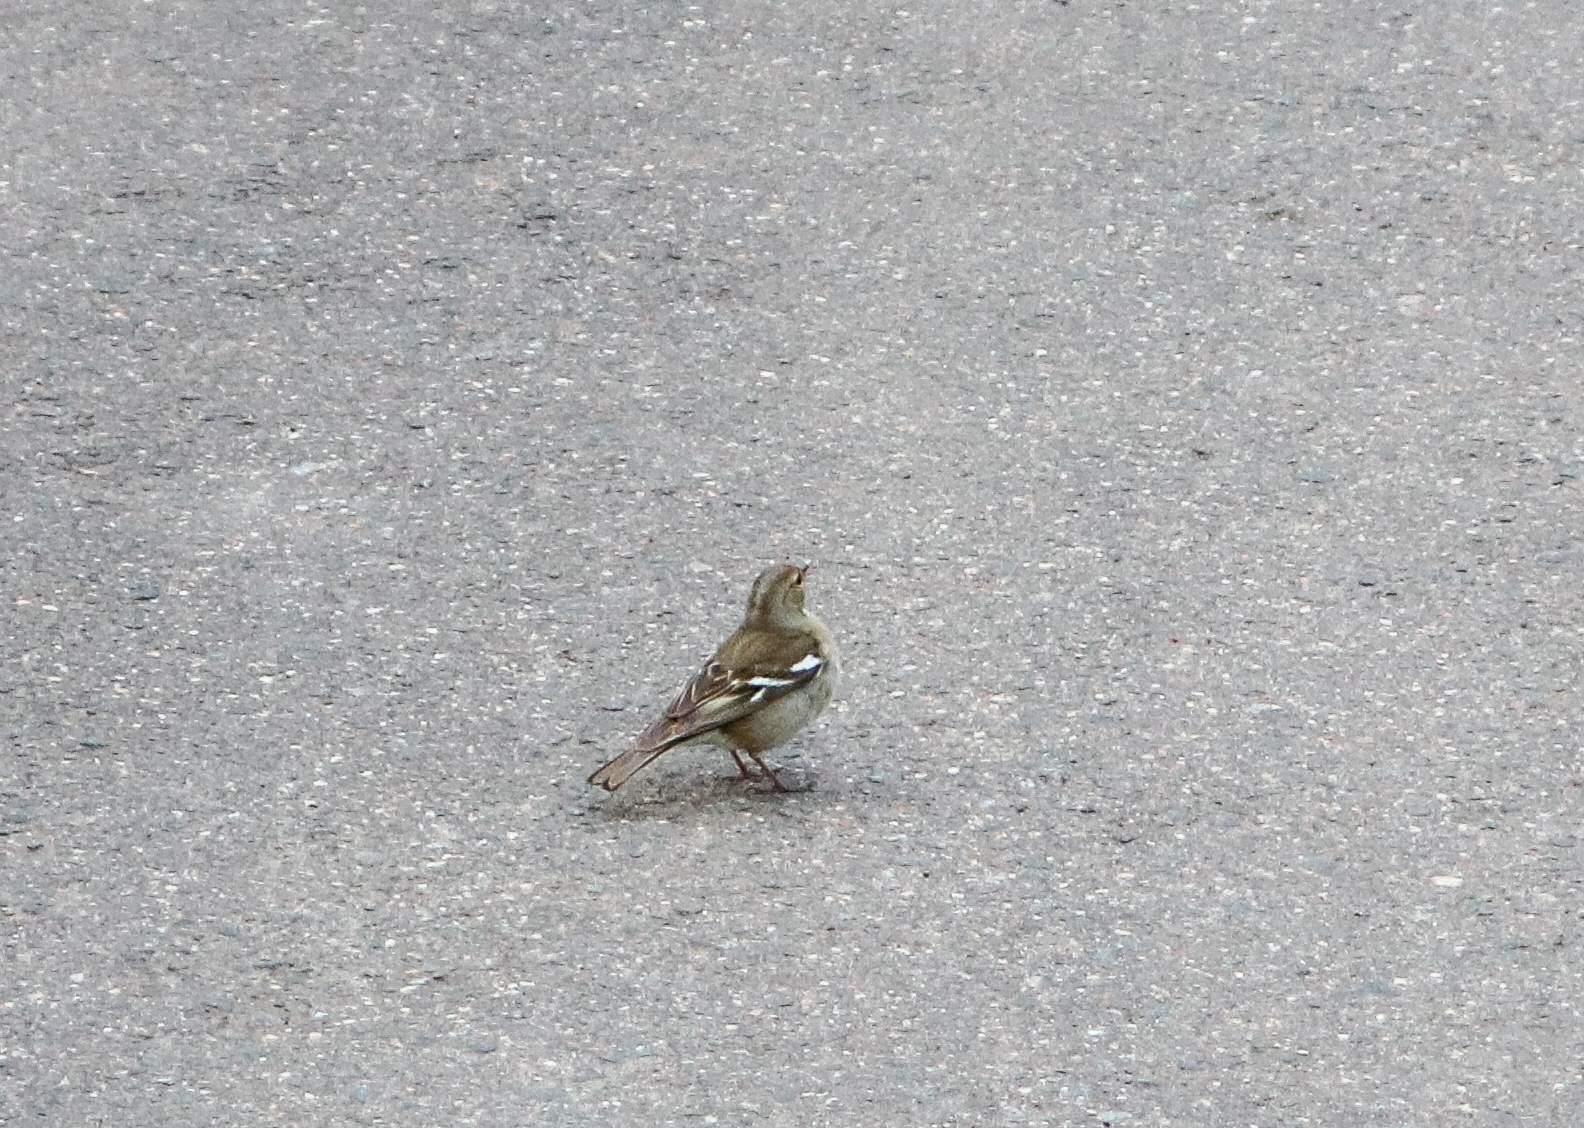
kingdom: Animalia
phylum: Chordata
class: Aves
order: Passeriformes
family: Fringillidae
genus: Fringilla
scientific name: Fringilla coelebs
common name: Common chaffinch
